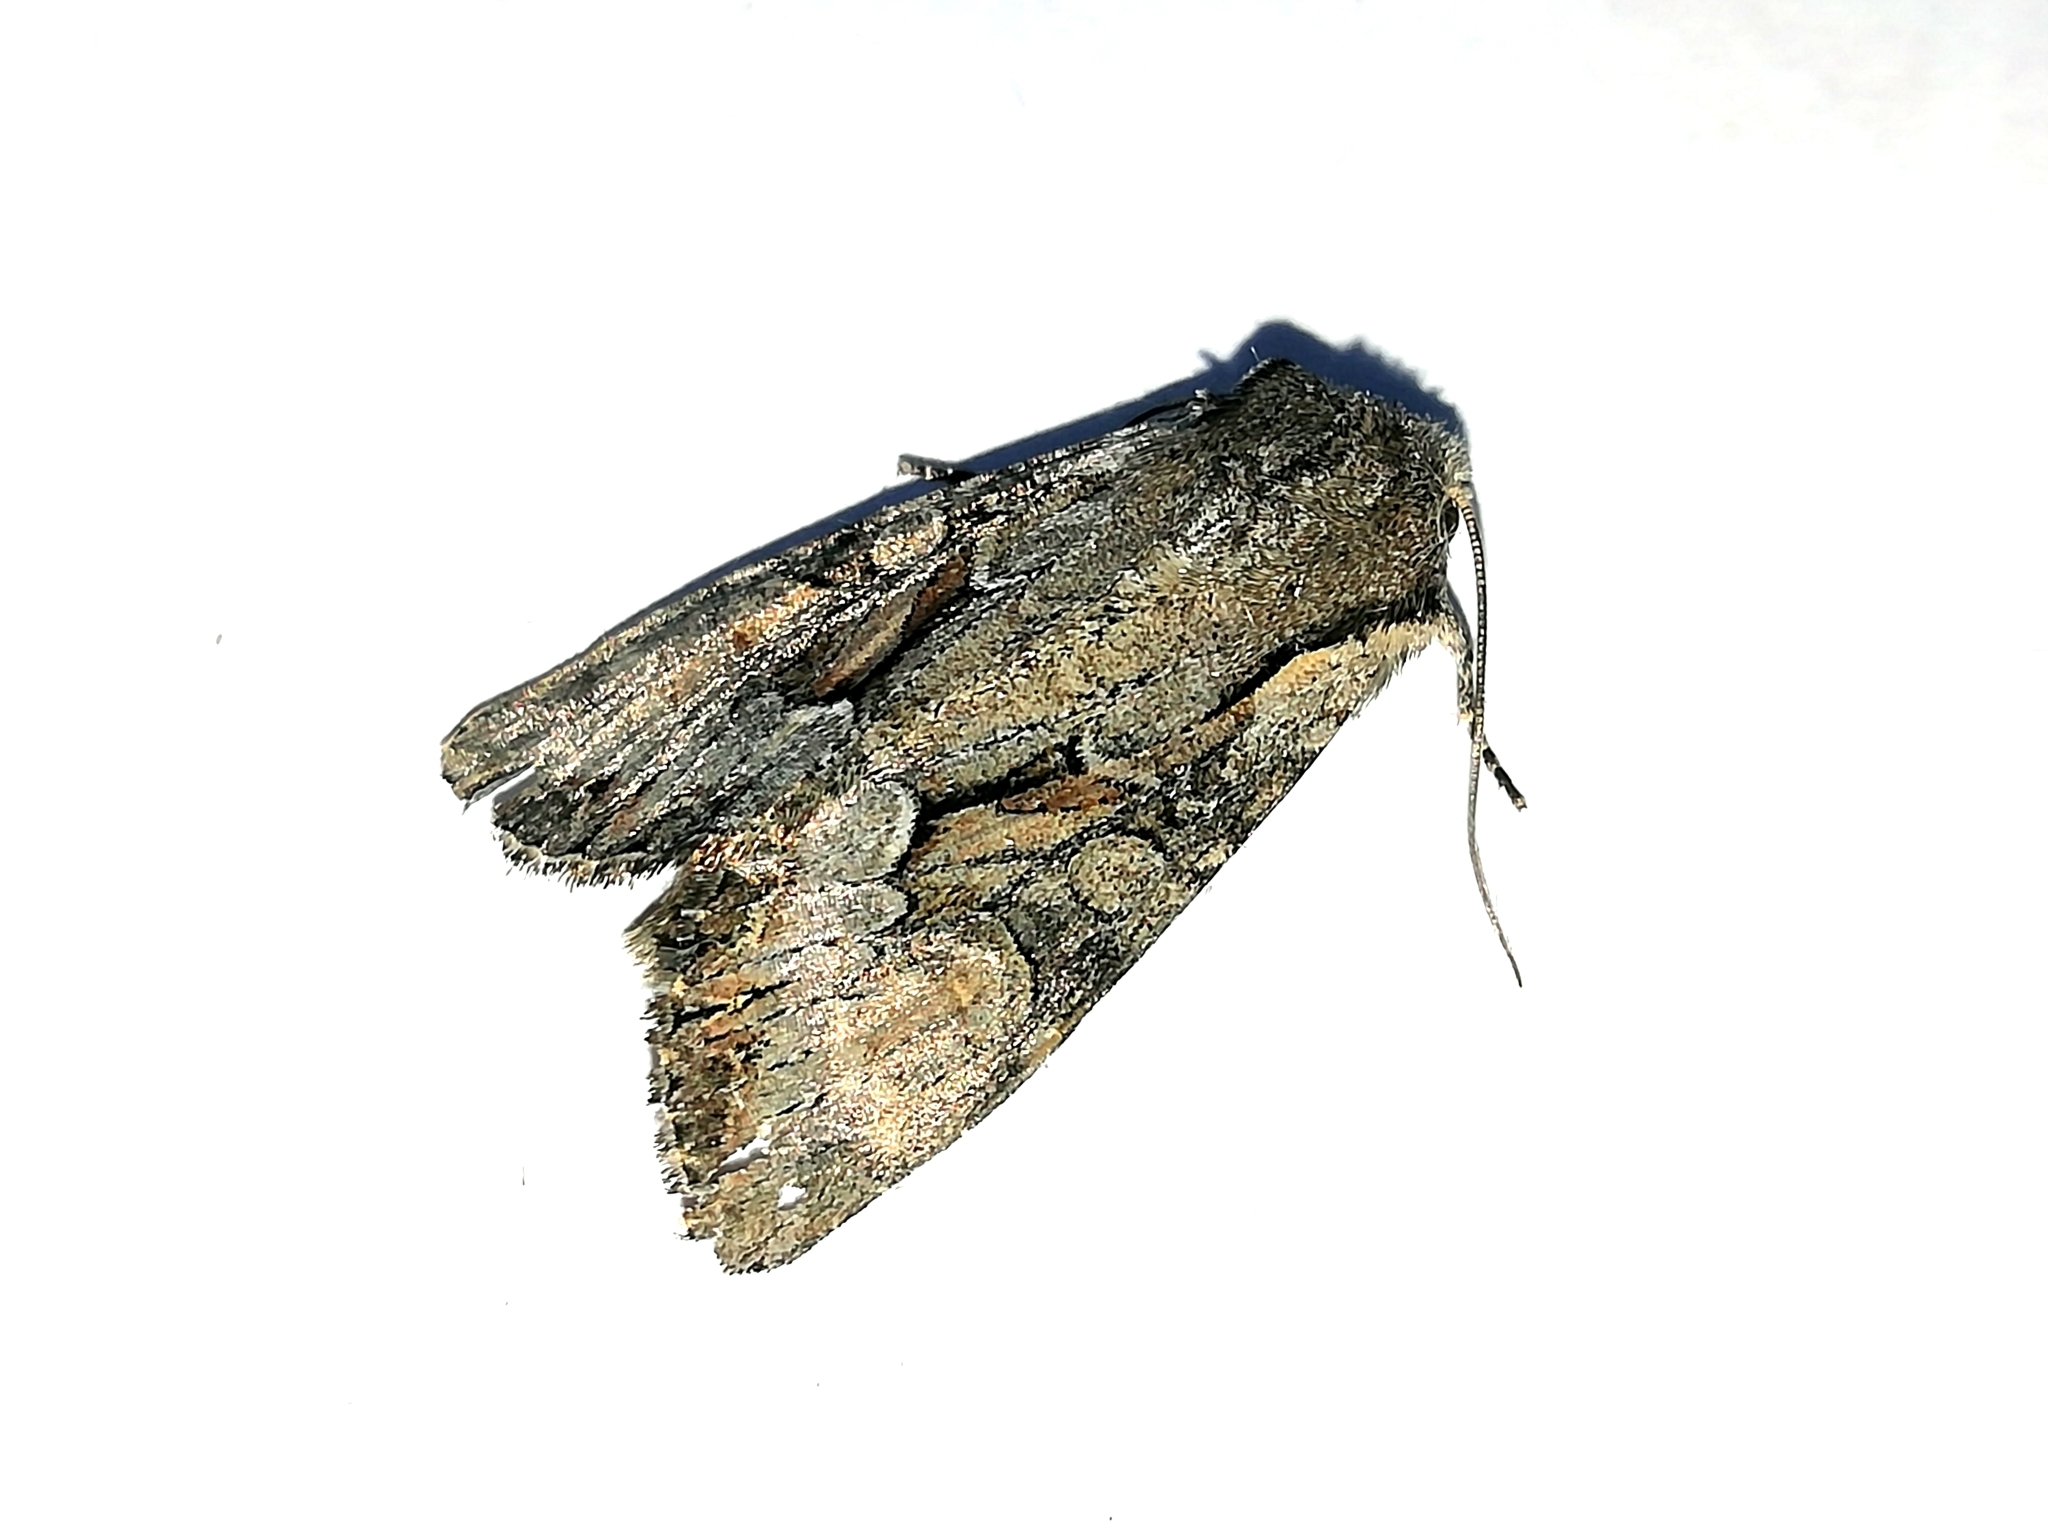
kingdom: Animalia
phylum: Arthropoda
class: Insecta
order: Lepidoptera
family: Noctuidae
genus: Lacanobia
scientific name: Lacanobia suasa
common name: Dog's tooth
